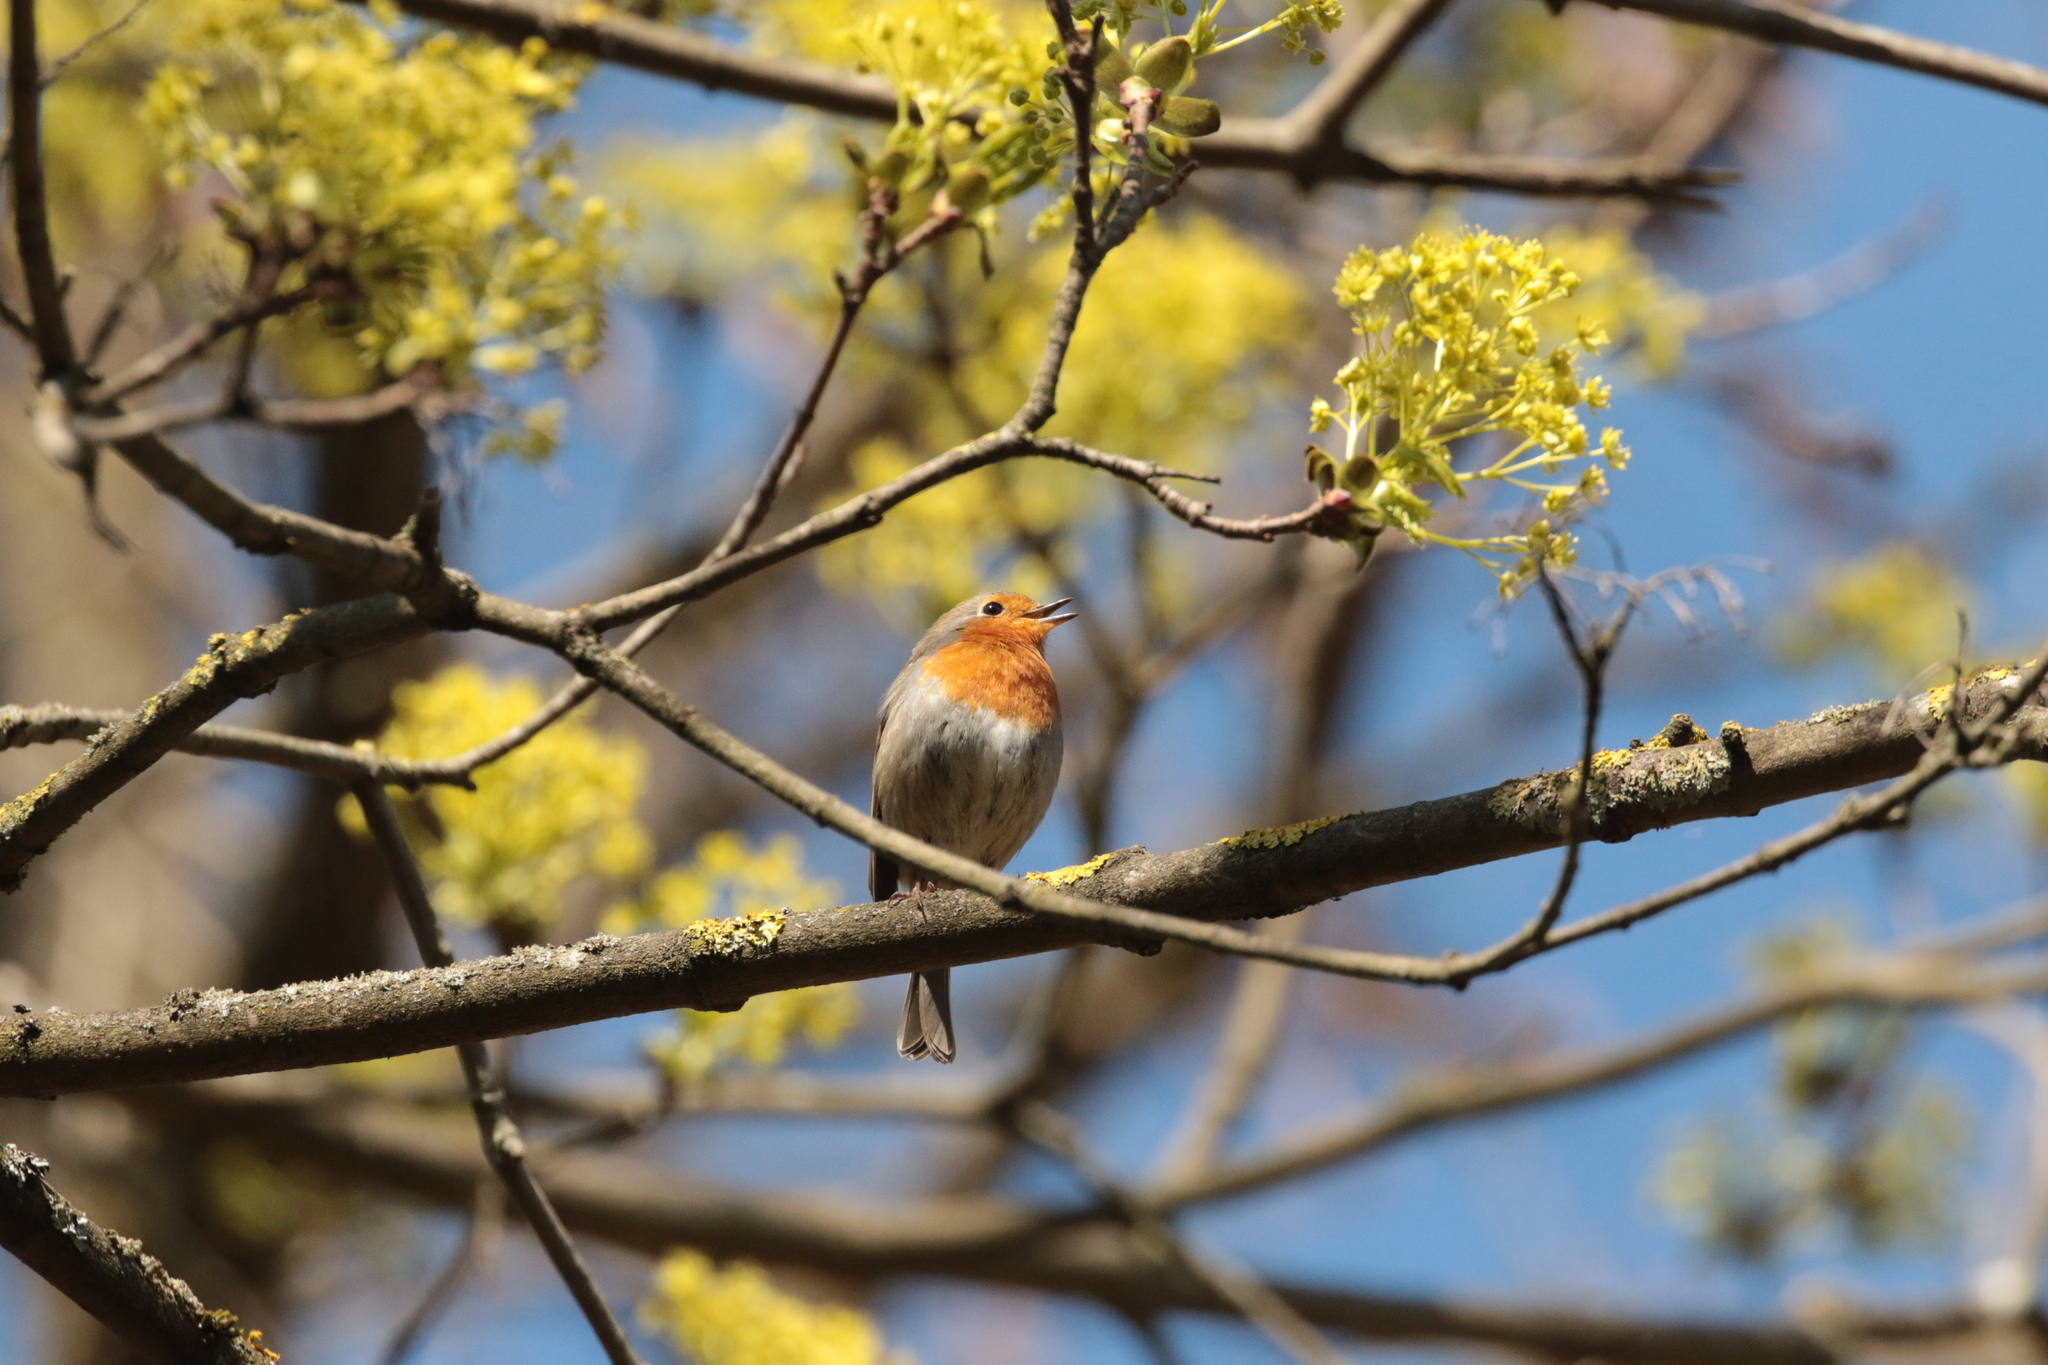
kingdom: Animalia
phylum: Chordata
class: Aves
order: Passeriformes
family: Muscicapidae
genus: Erithacus
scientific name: Erithacus rubecula
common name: European robin
